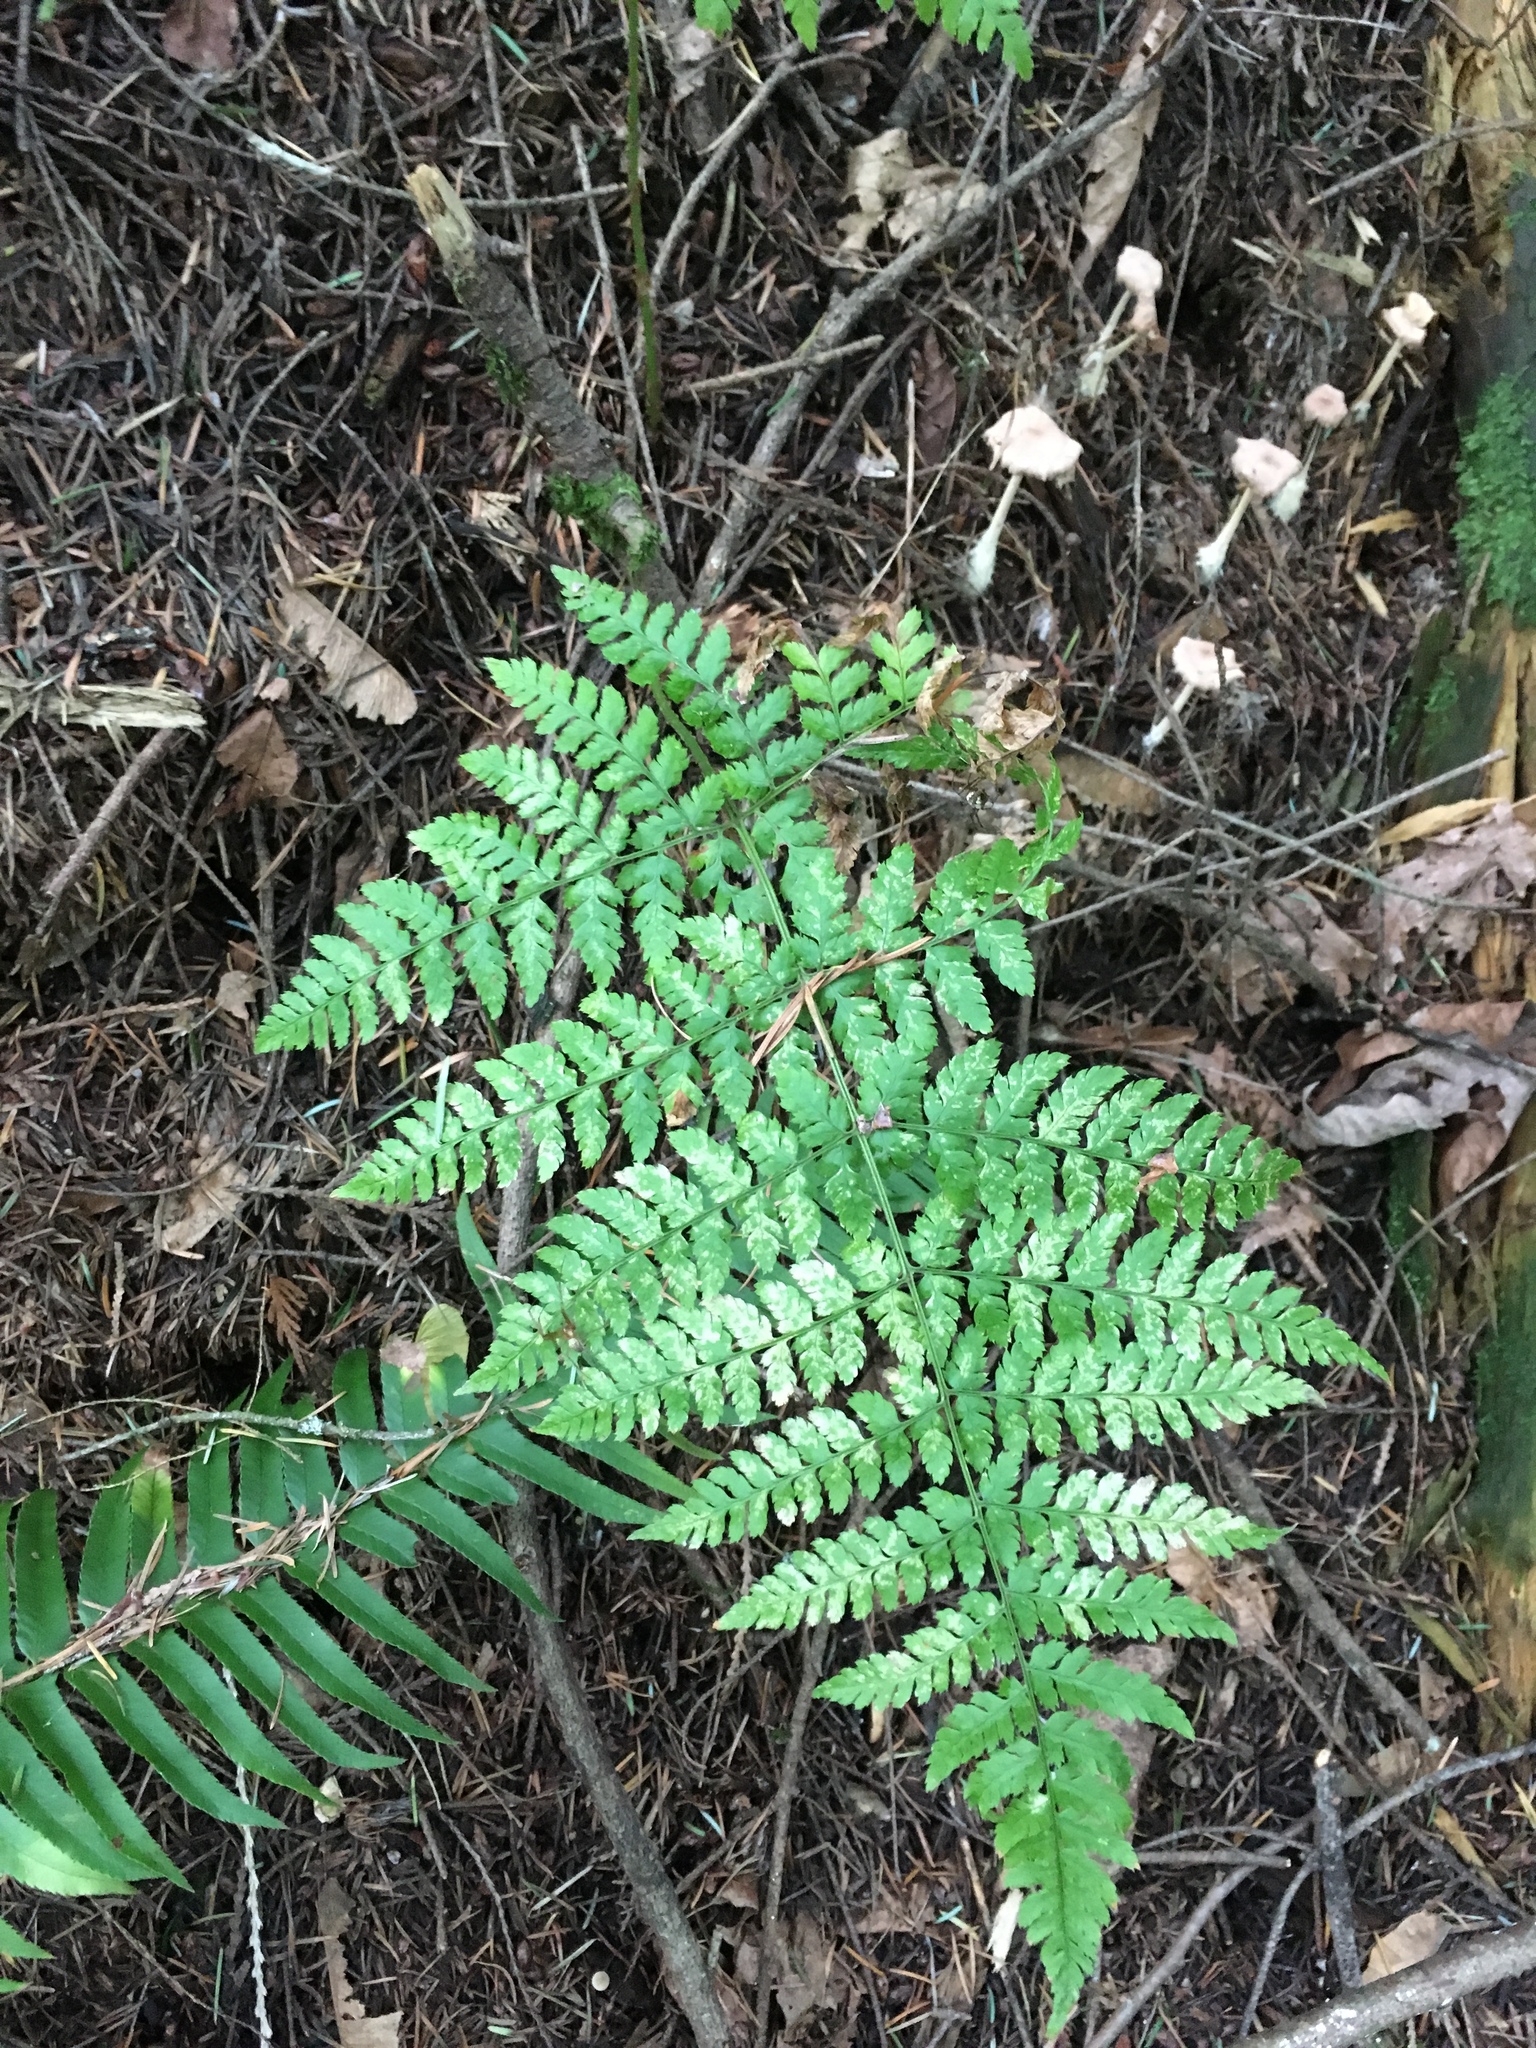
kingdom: Plantae
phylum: Tracheophyta
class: Polypodiopsida
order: Polypodiales
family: Dryopteridaceae
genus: Dryopteris
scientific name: Dryopteris expansa
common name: Northern buckler fern
